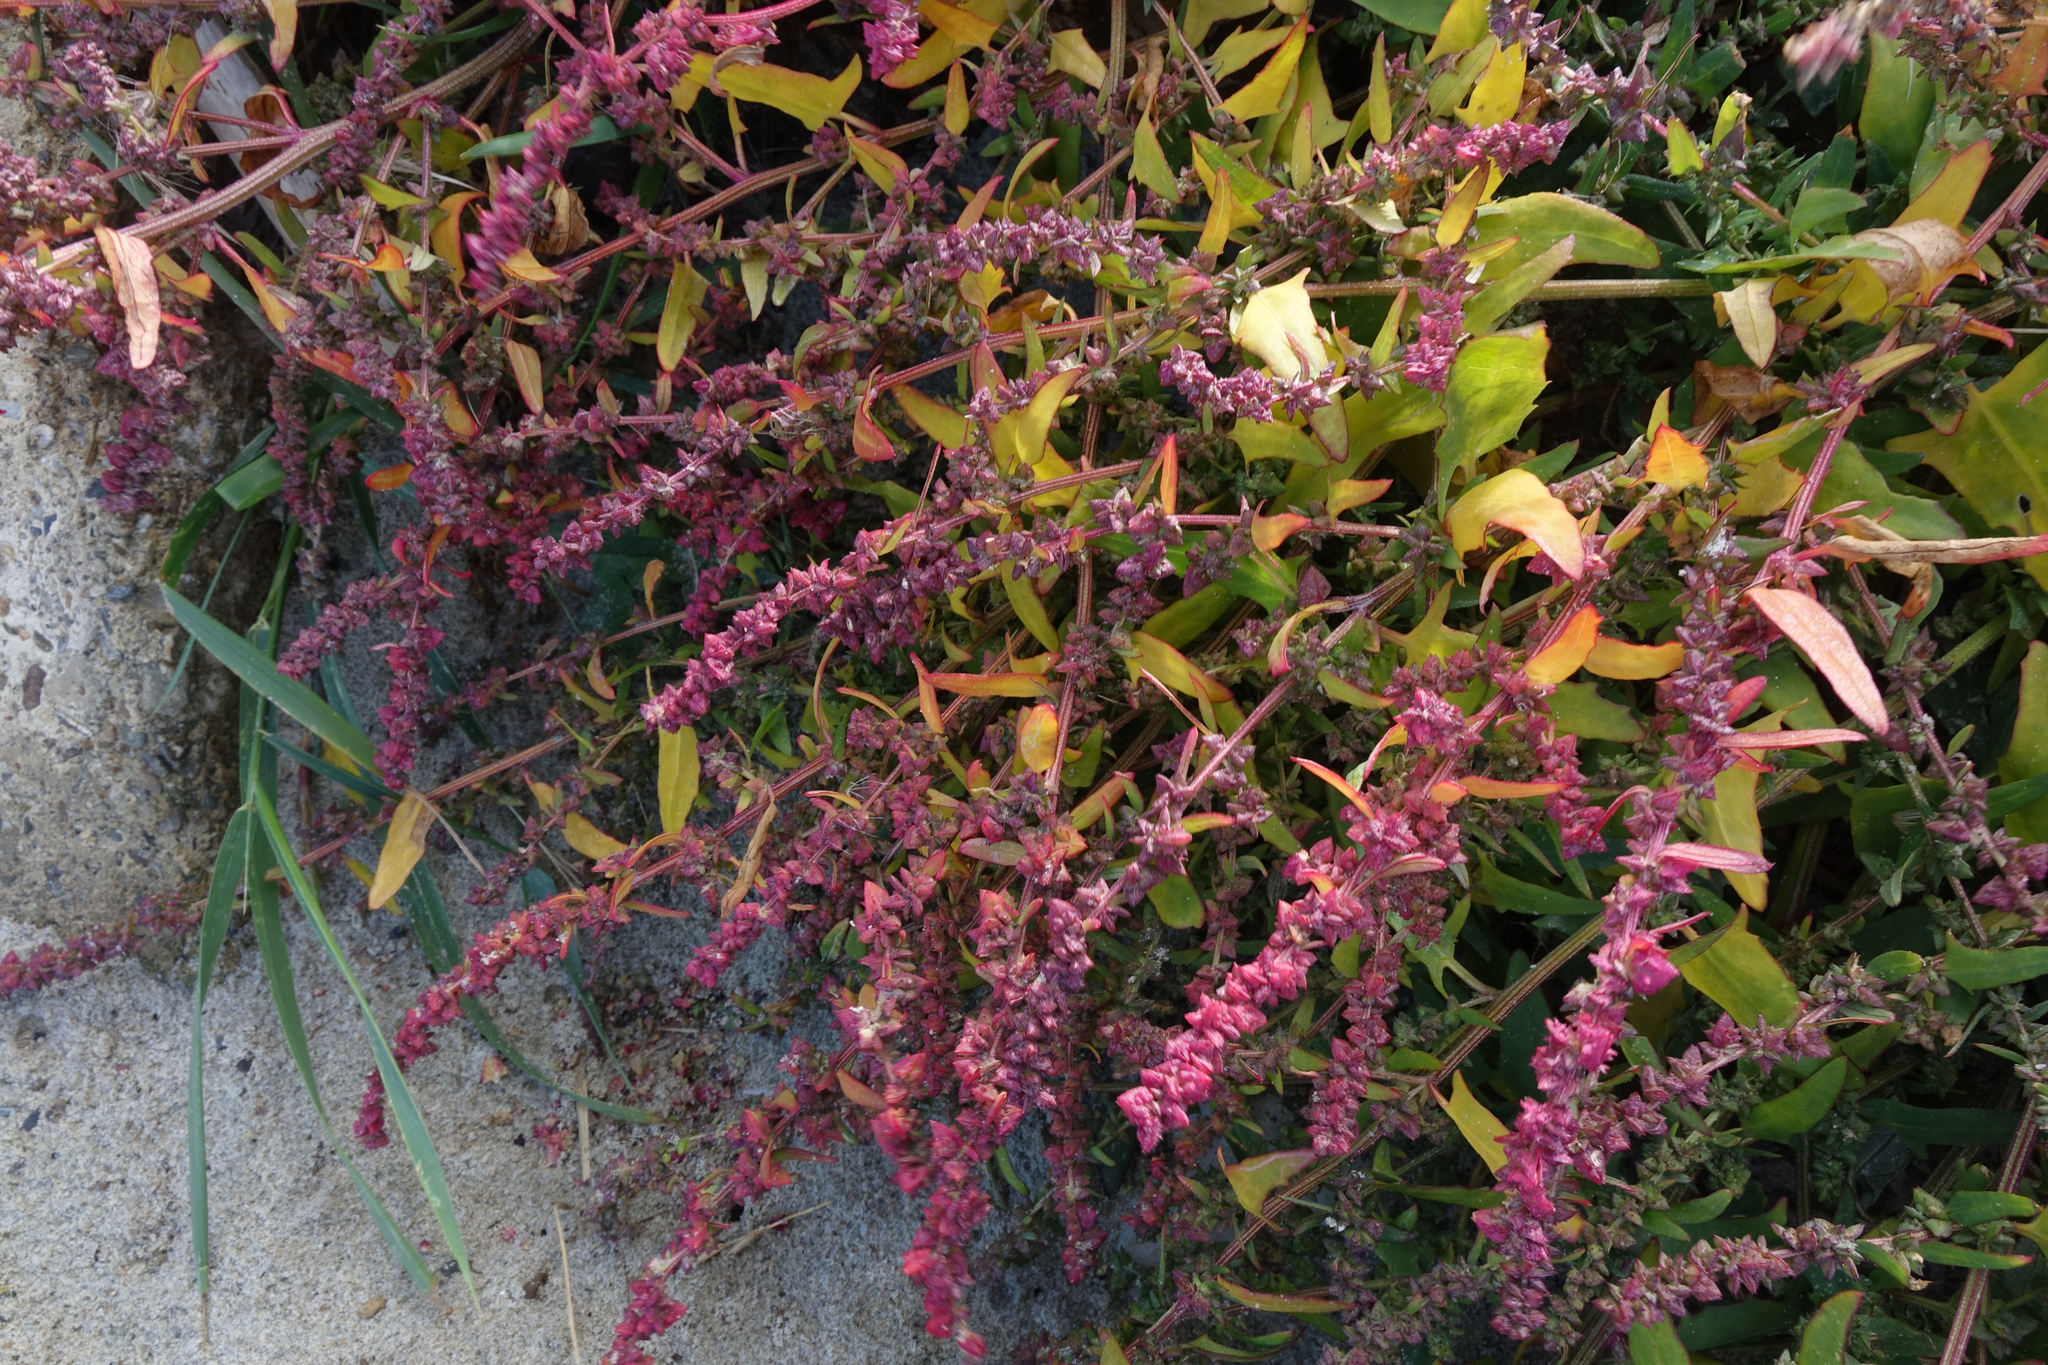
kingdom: Plantae
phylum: Tracheophyta
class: Magnoliopsida
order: Caryophyllales
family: Amaranthaceae
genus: Atriplex
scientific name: Atriplex prostrata
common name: Spear-leaved orache
